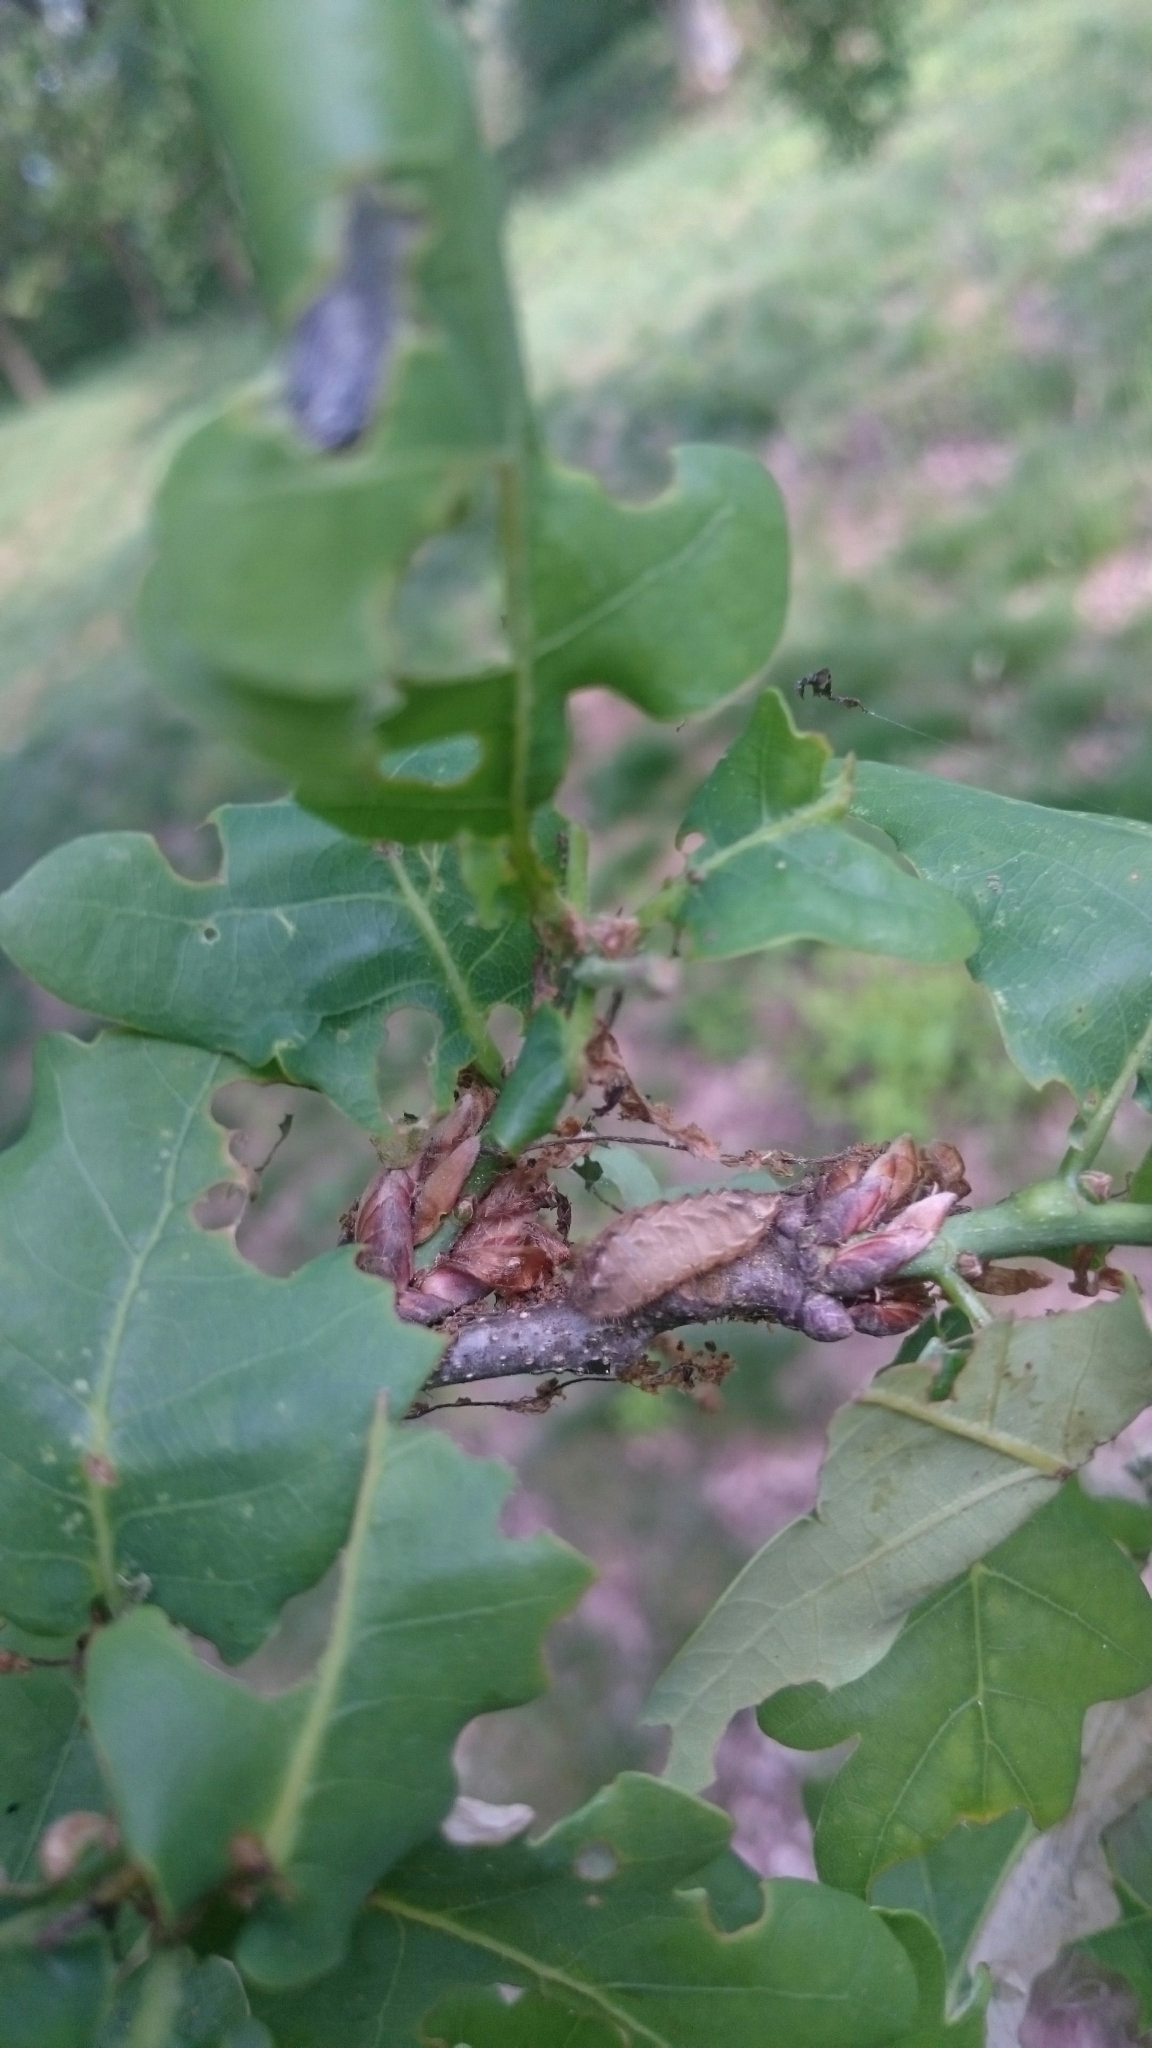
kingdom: Animalia
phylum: Arthropoda
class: Insecta
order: Lepidoptera
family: Lycaenidae
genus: Quercusia
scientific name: Quercusia quercus
